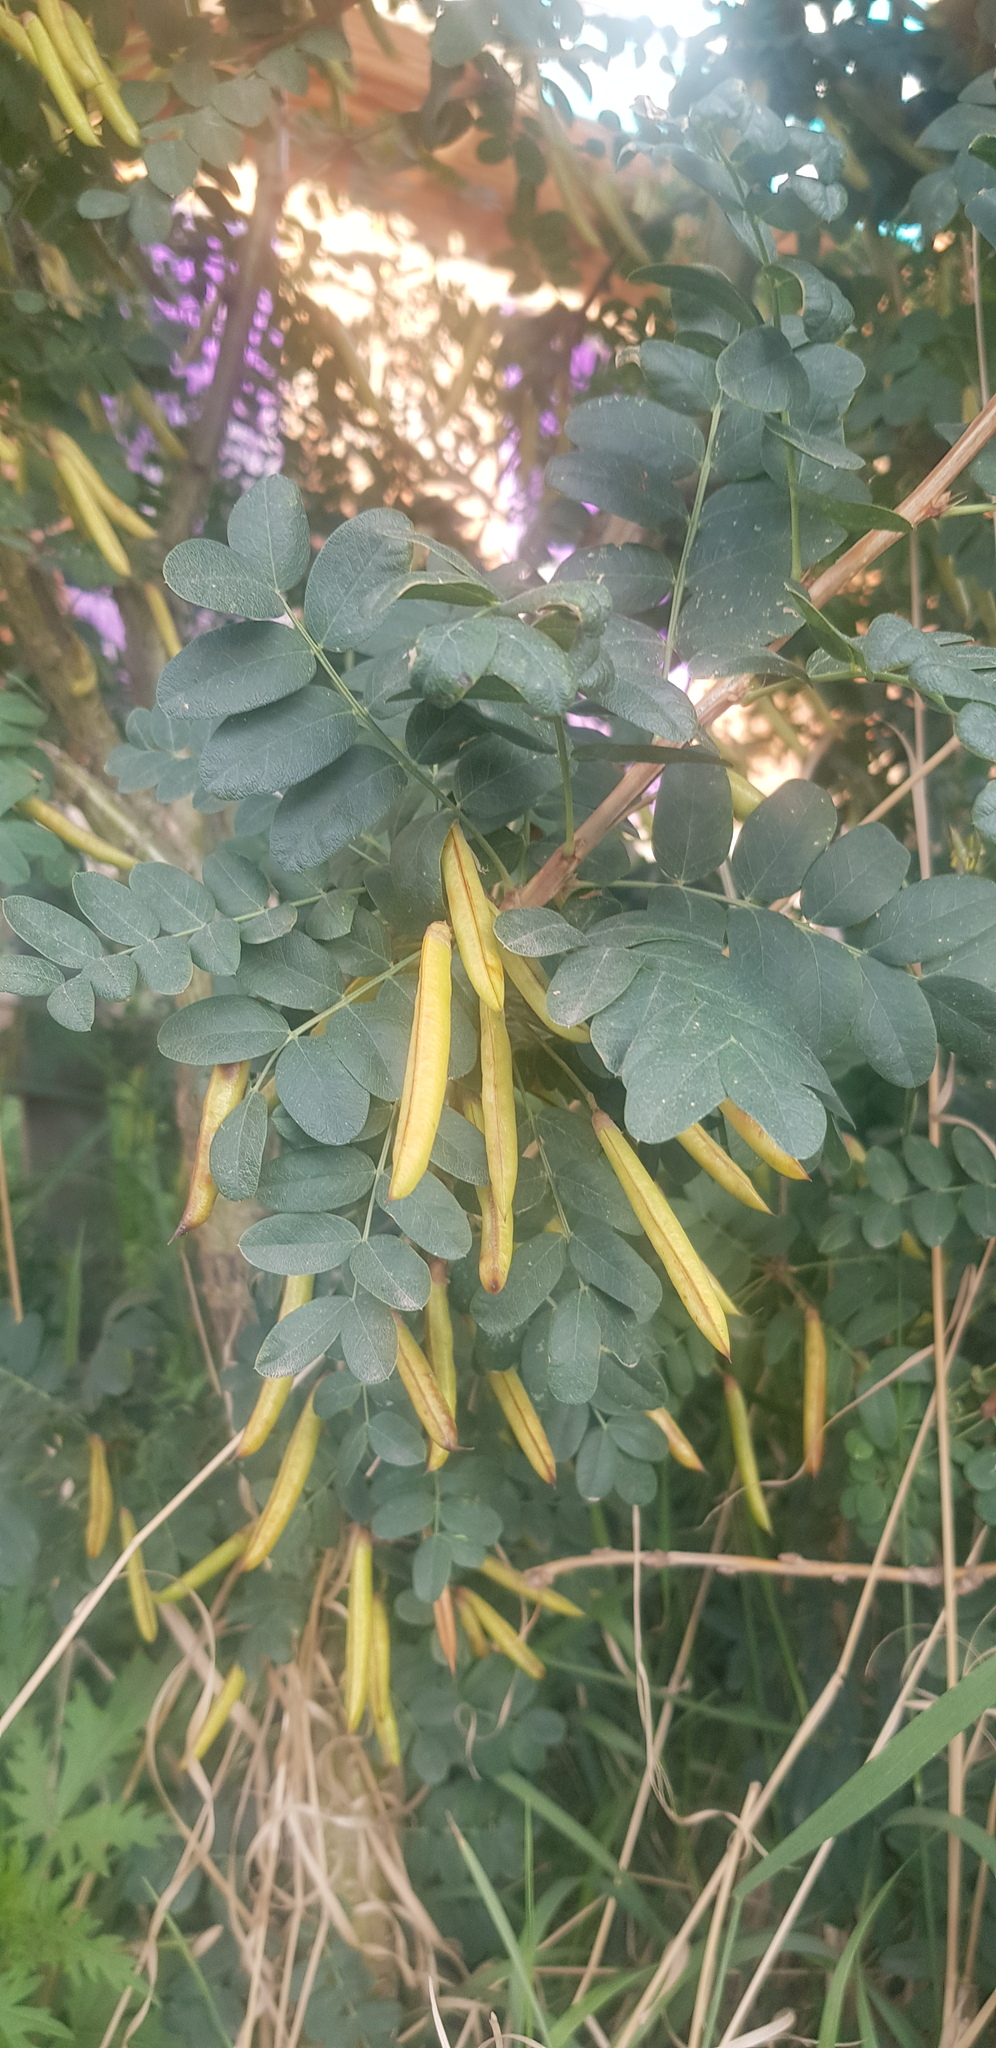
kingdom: Plantae
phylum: Tracheophyta
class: Magnoliopsida
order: Fabales
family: Fabaceae
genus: Caragana
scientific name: Caragana arborescens
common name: Siberian peashrub
